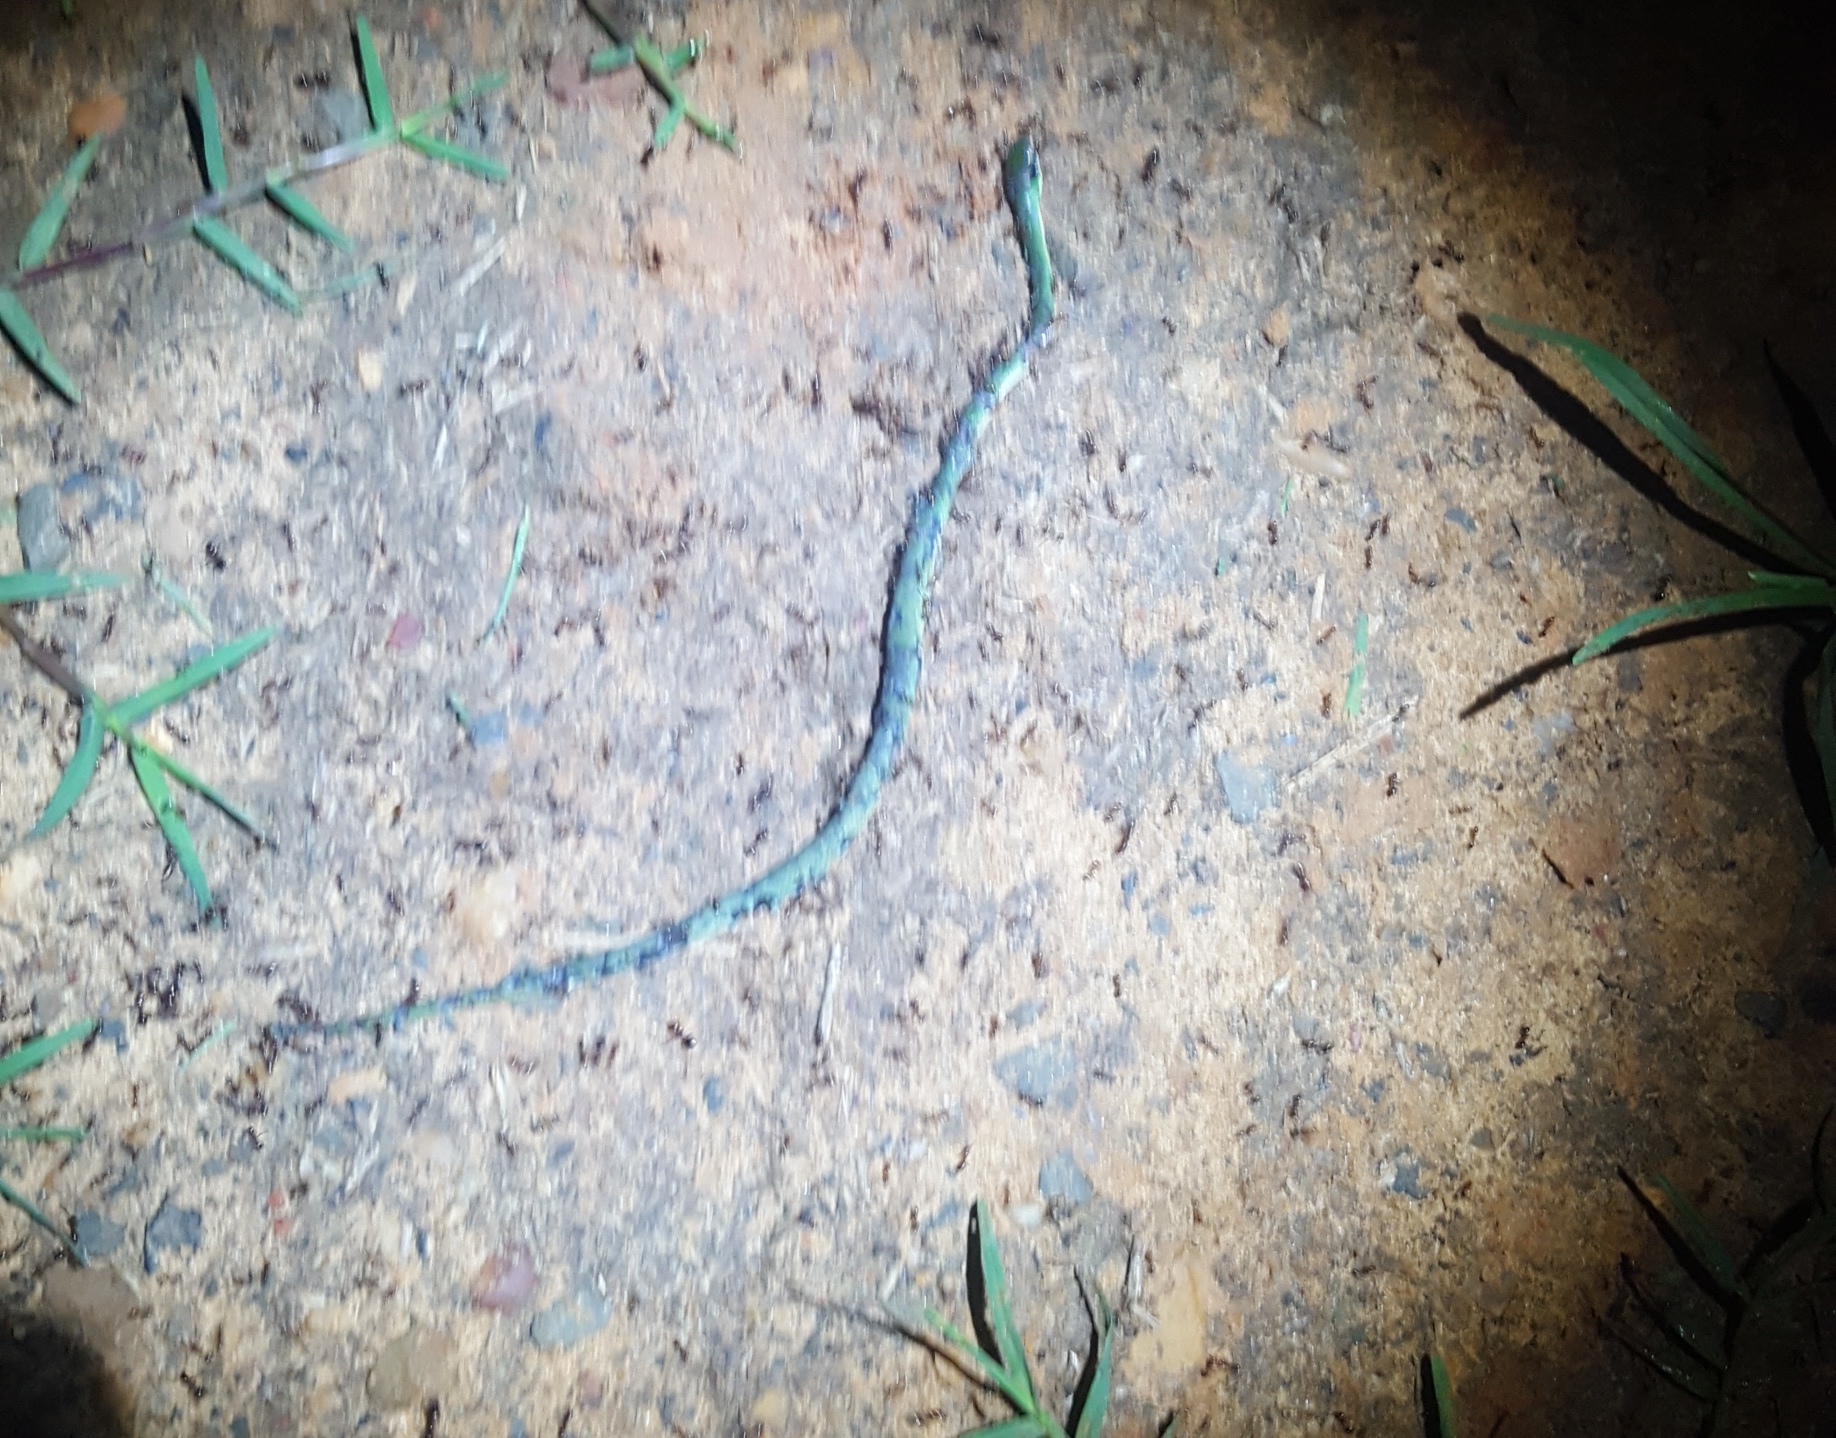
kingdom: Animalia
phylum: Chordata
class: Squamata
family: Colubridae
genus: Opheodrys
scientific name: Opheodrys aestivus
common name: Rough greensnake
